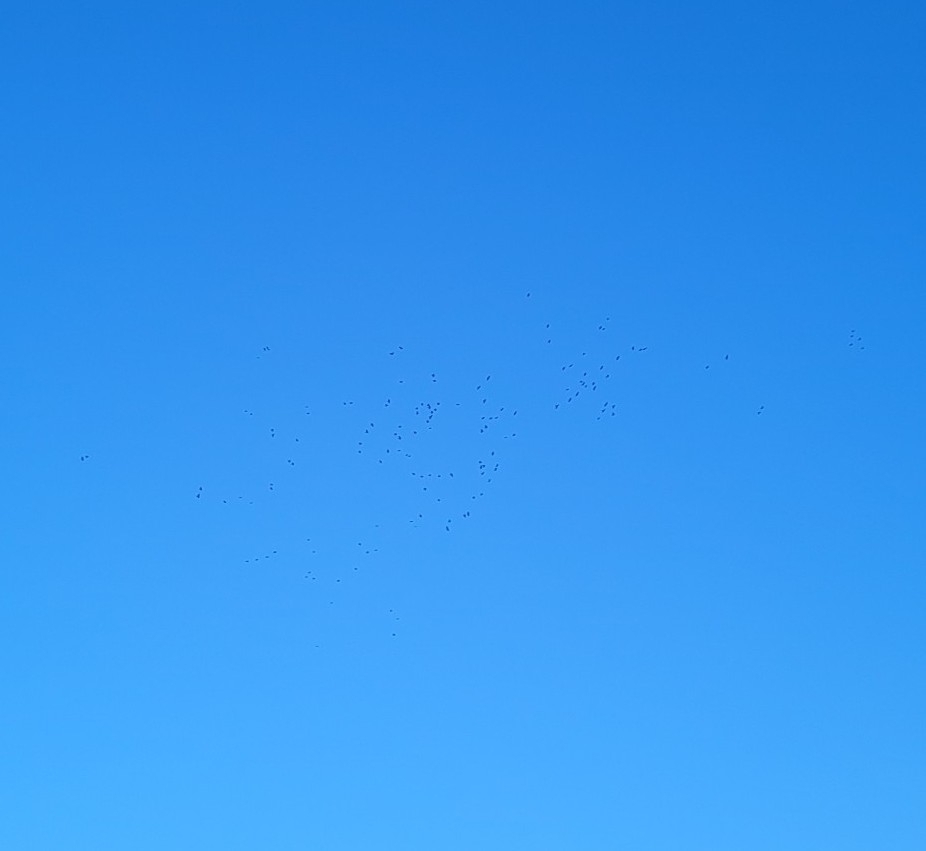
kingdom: Animalia
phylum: Chordata
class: Aves
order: Passeriformes
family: Corvidae
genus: Coloeus
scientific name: Coloeus monedula
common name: Western jackdaw
